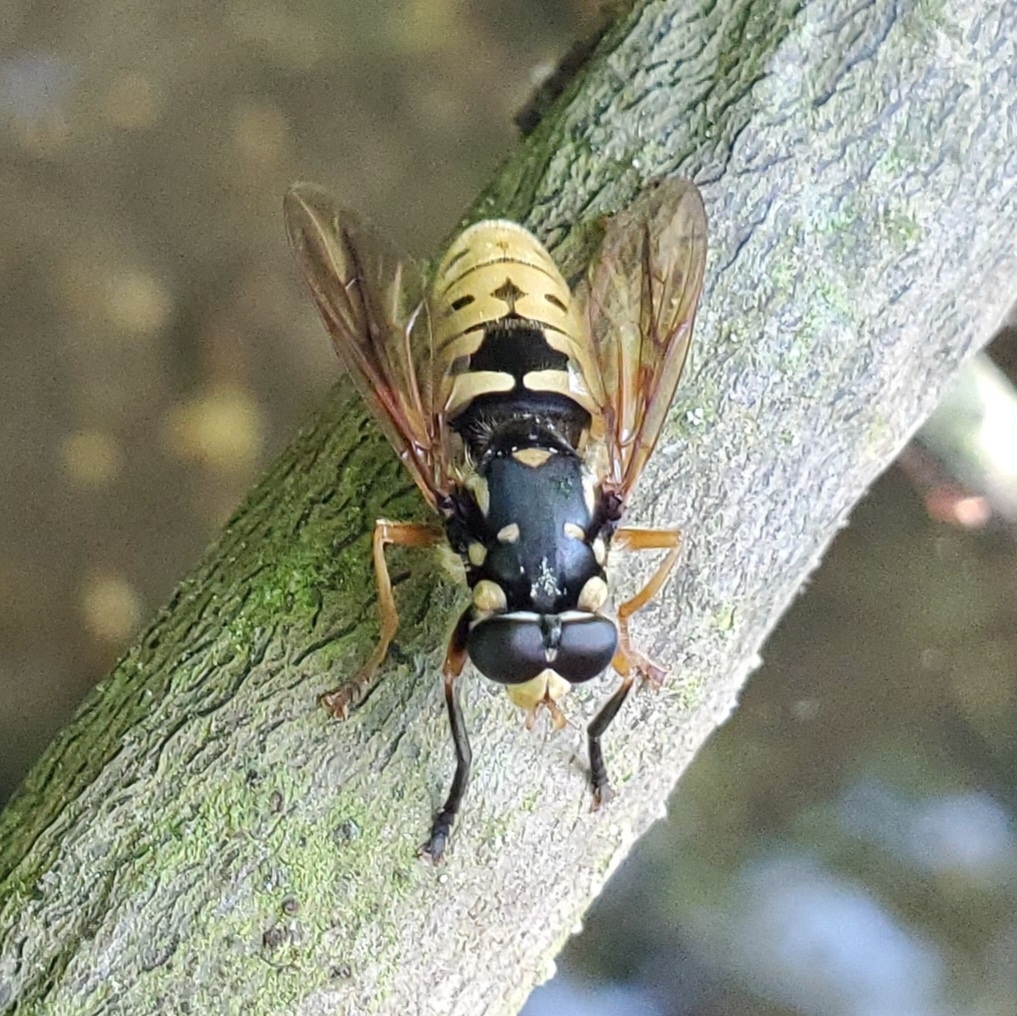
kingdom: Animalia
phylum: Arthropoda
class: Insecta
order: Diptera
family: Syrphidae
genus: Temnostoma
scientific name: Temnostoma alternans
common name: Wasp-like falsehorn
